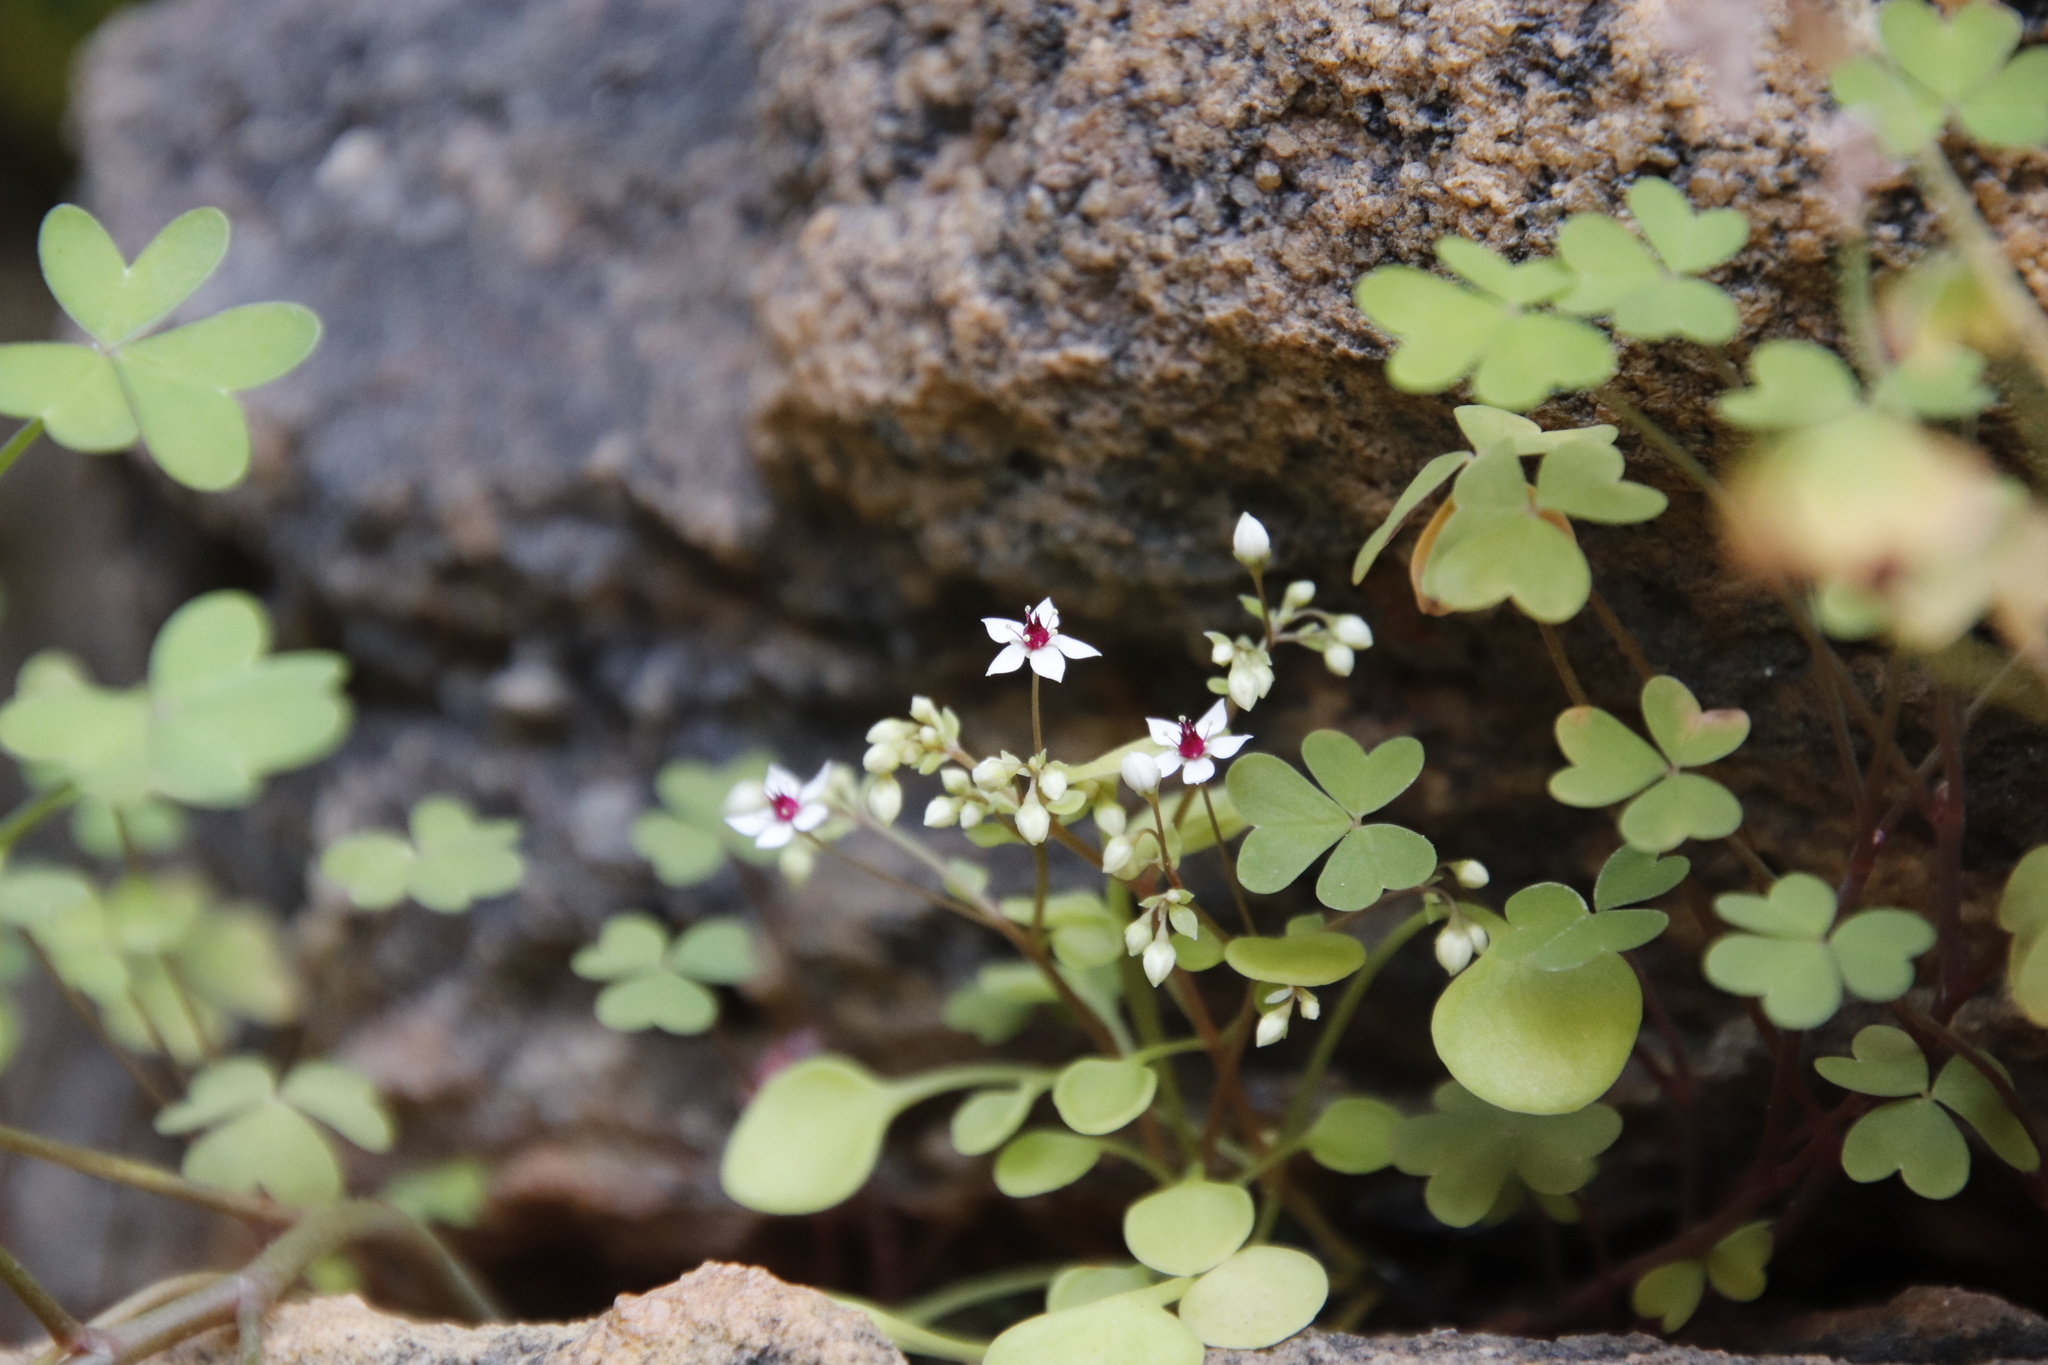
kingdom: Plantae
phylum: Tracheophyta
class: Magnoliopsida
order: Saxifragales
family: Crassulaceae
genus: Crassula
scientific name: Crassula dentata
